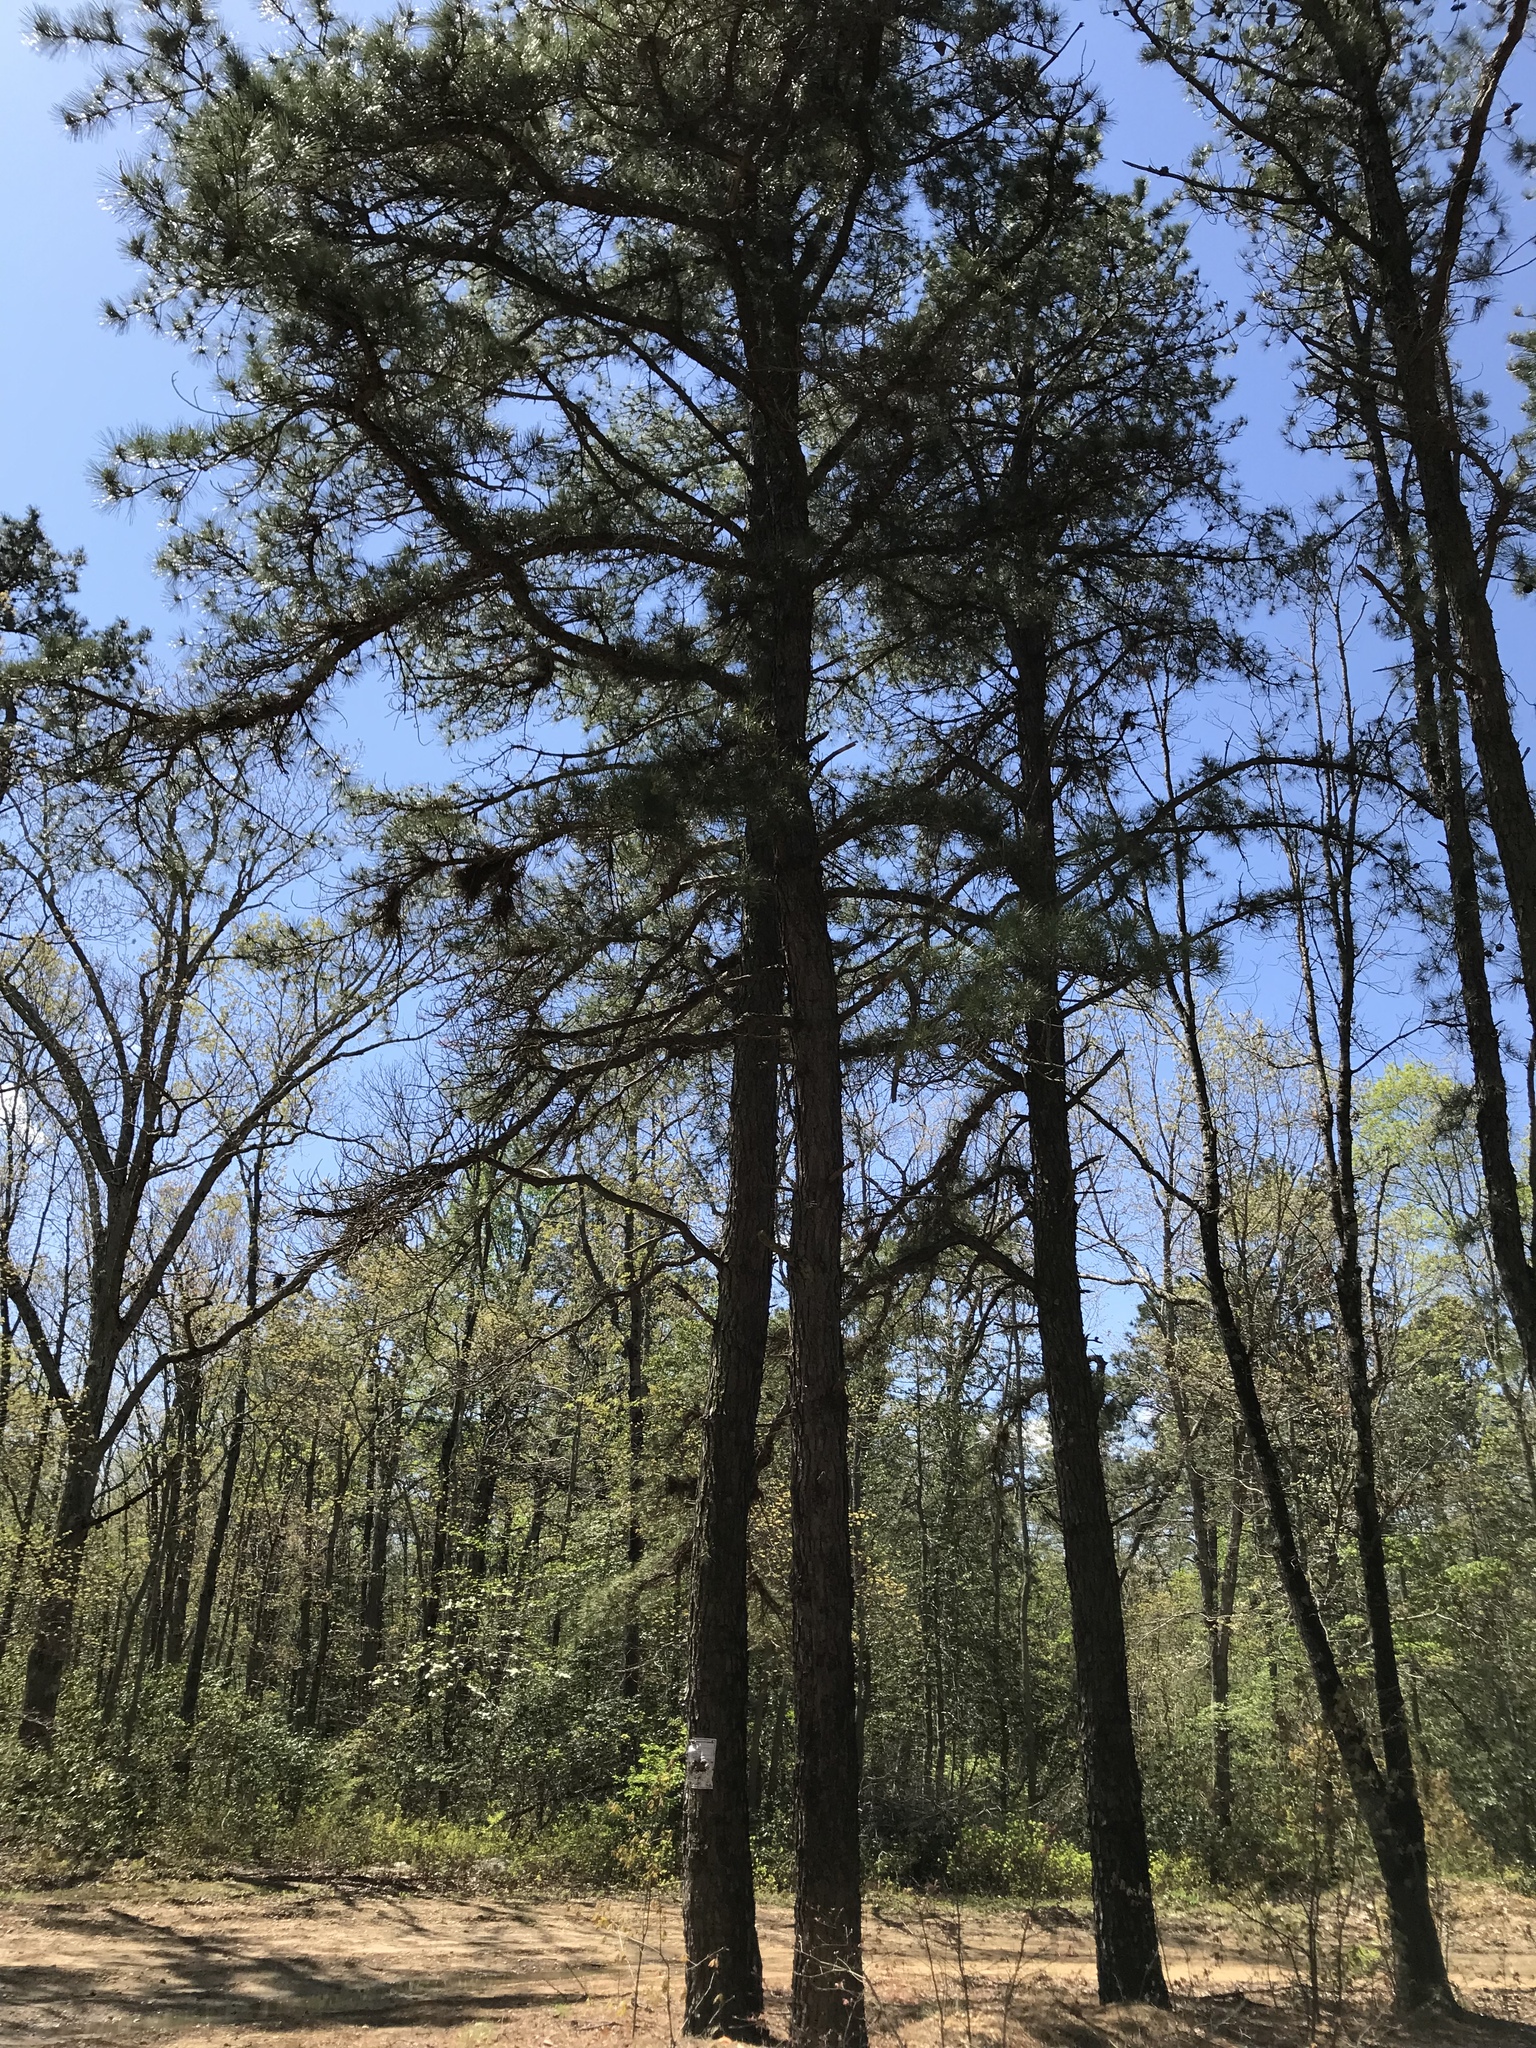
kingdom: Plantae
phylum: Tracheophyta
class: Pinopsida
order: Pinales
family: Pinaceae
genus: Pinus
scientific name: Pinus rigida
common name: Pitch pine
